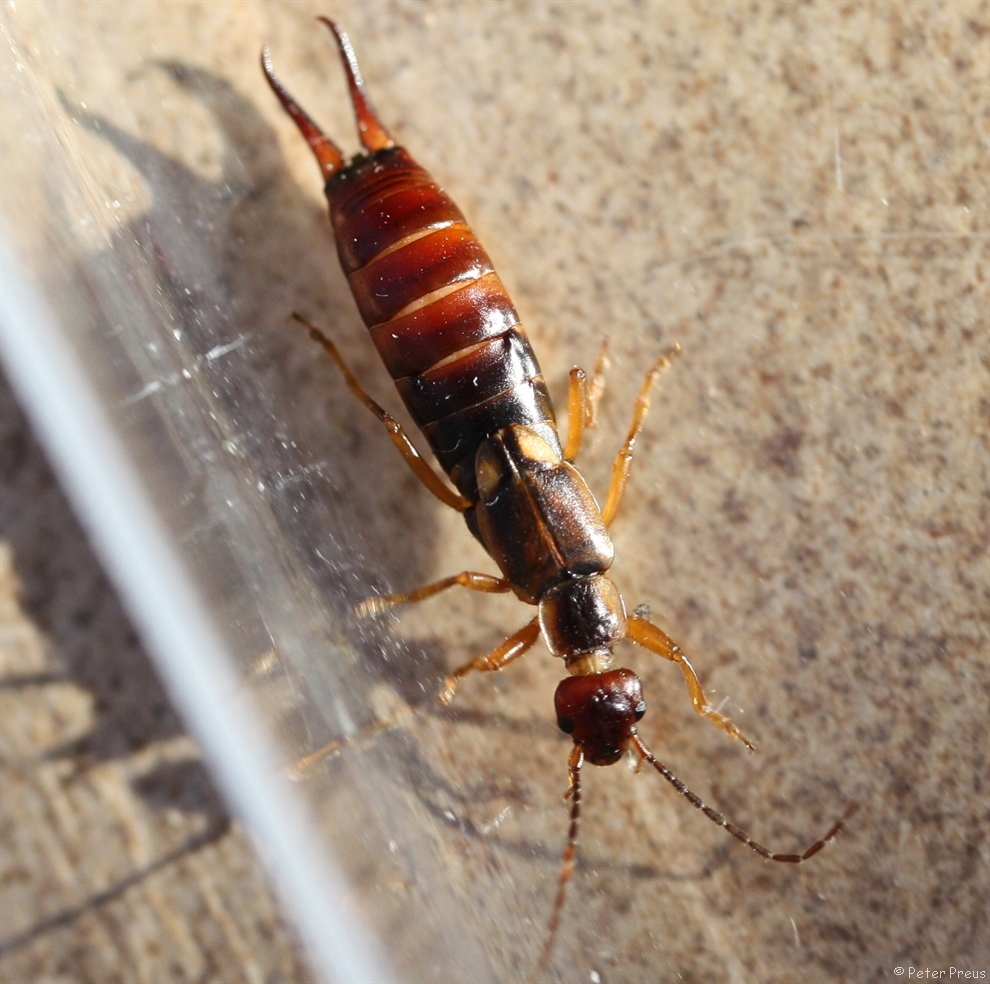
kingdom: Animalia
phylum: Arthropoda
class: Insecta
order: Dermaptera
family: Forficulidae
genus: Forficula
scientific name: Forficula
